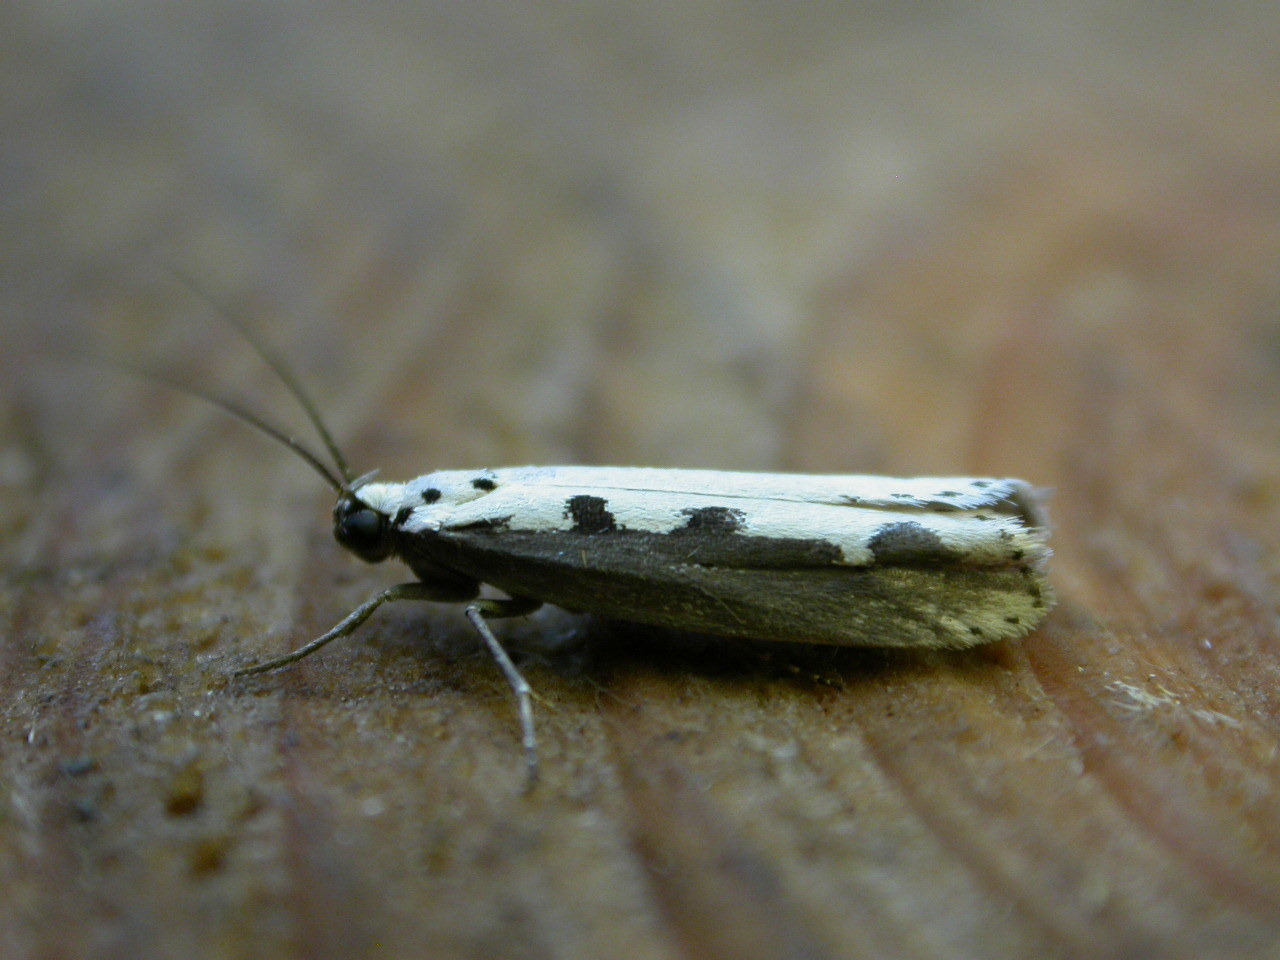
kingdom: Animalia
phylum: Arthropoda
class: Insecta
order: Lepidoptera
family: Ethmiidae
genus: Ethmia
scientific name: Ethmia bipunctella
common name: Bordered ermel
